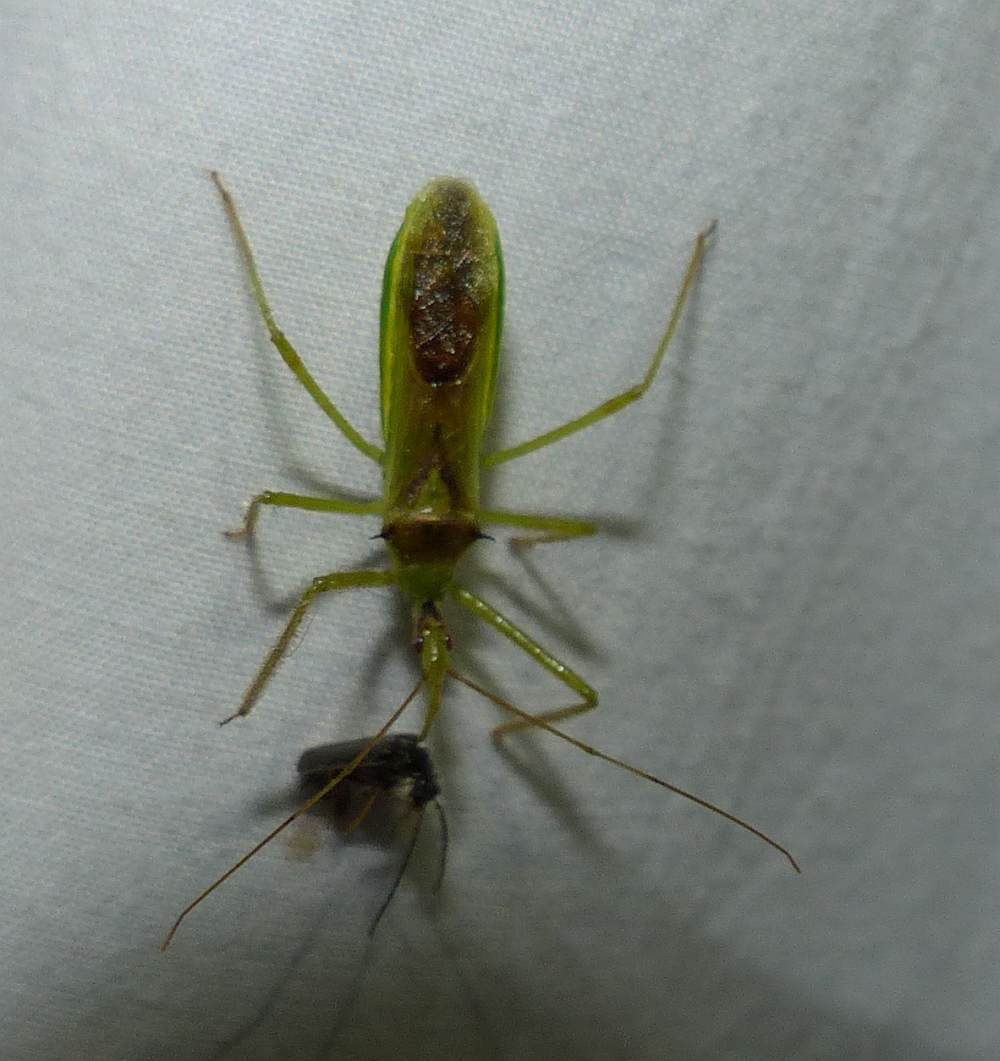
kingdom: Animalia
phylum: Arthropoda
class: Insecta
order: Hemiptera
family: Reduviidae
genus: Zelus
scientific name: Zelus luridus
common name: Pale green assassin bug
